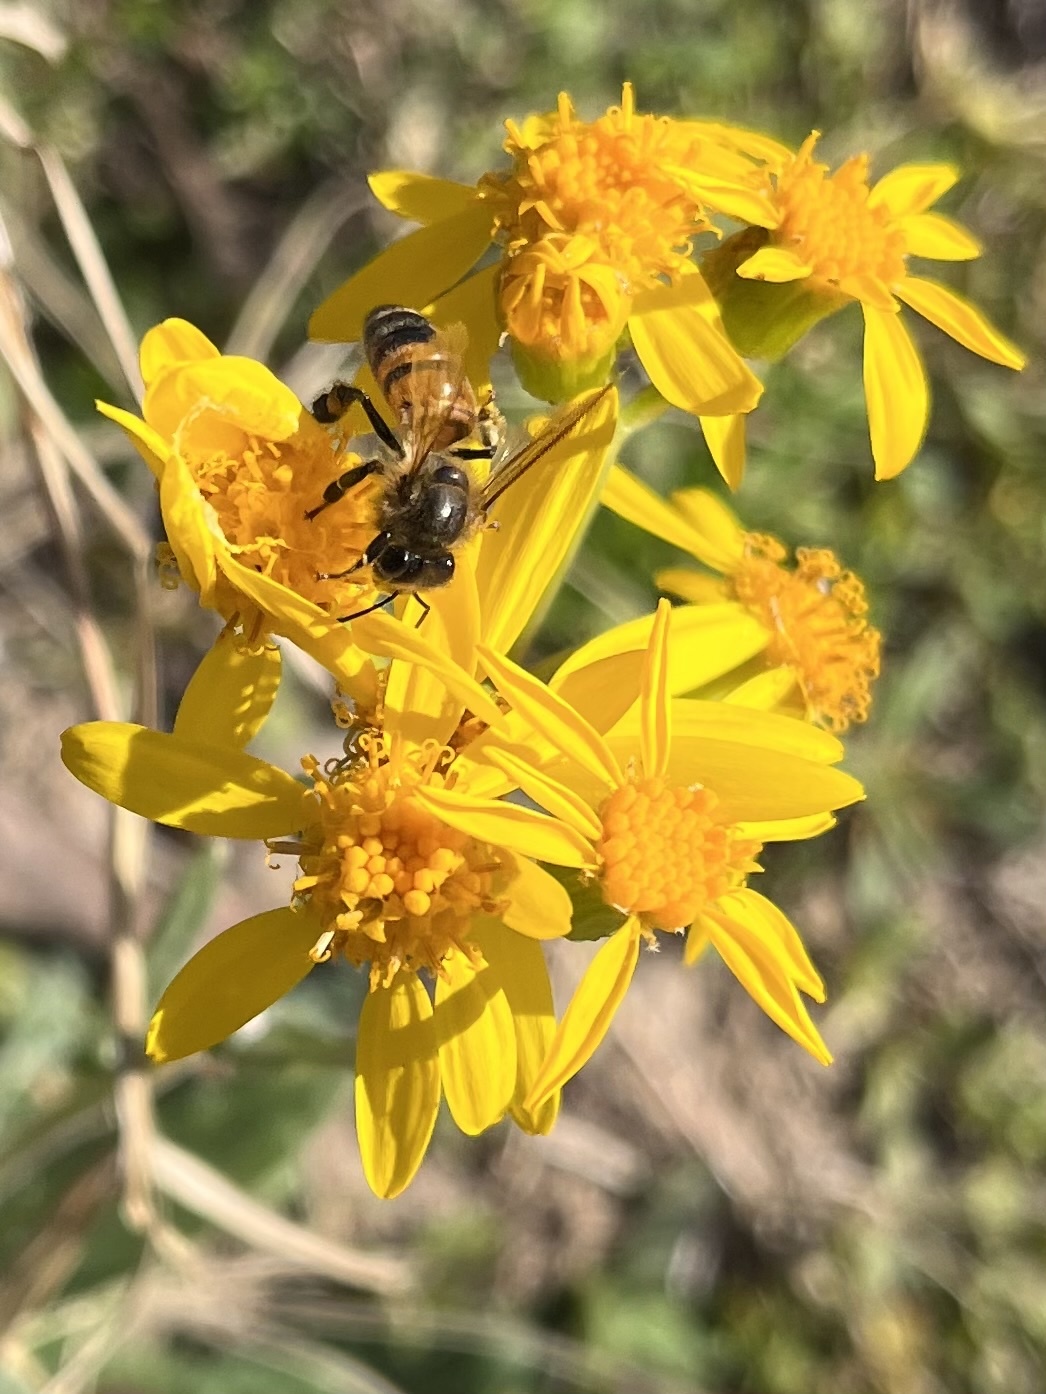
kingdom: Animalia
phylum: Arthropoda
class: Insecta
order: Hymenoptera
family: Apidae
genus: Apis
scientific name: Apis mellifera
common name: Honey bee
